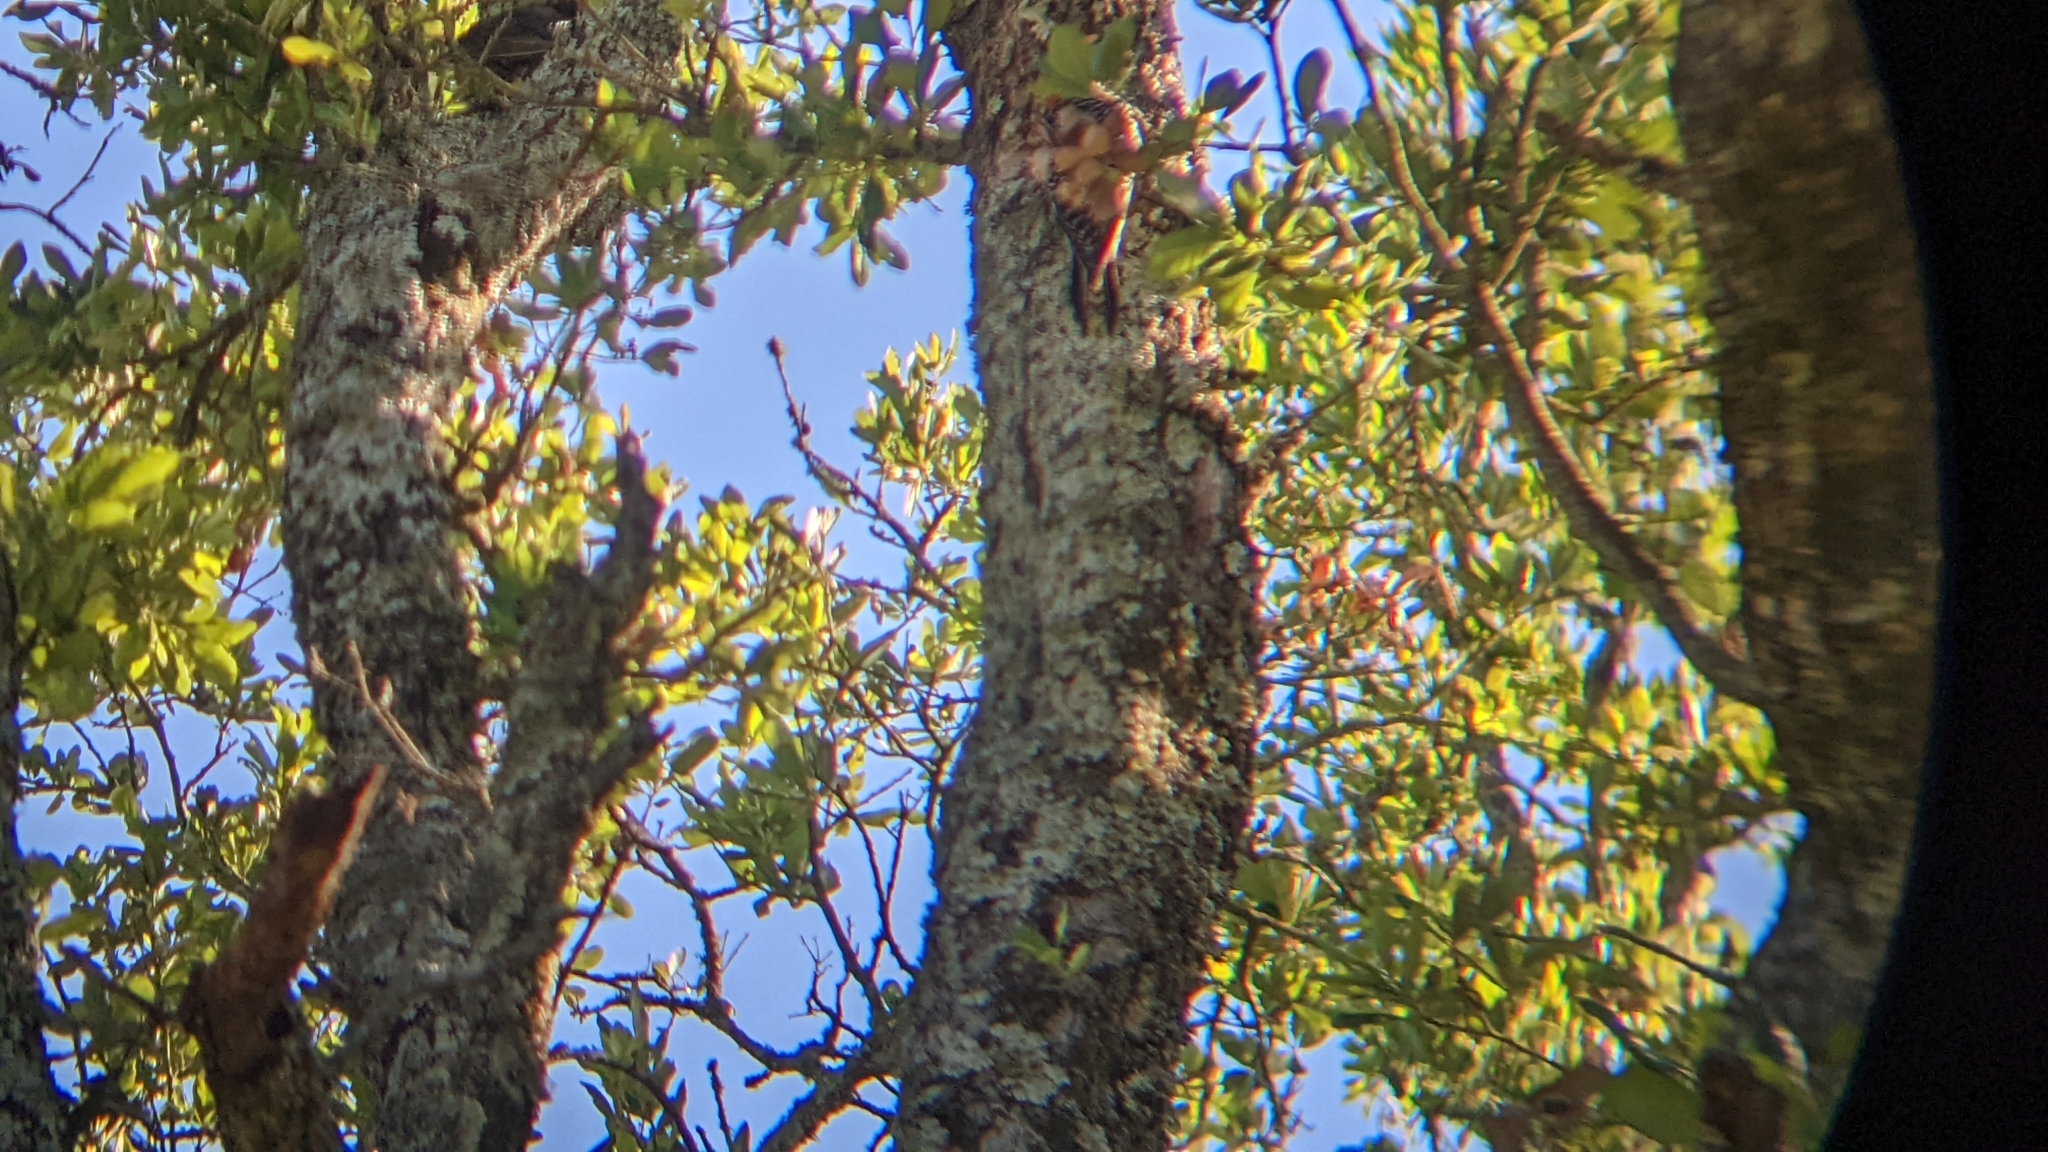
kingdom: Animalia
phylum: Chordata
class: Aves
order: Piciformes
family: Picidae
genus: Melanerpes
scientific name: Melanerpes carolinus
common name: Red-bellied woodpecker
